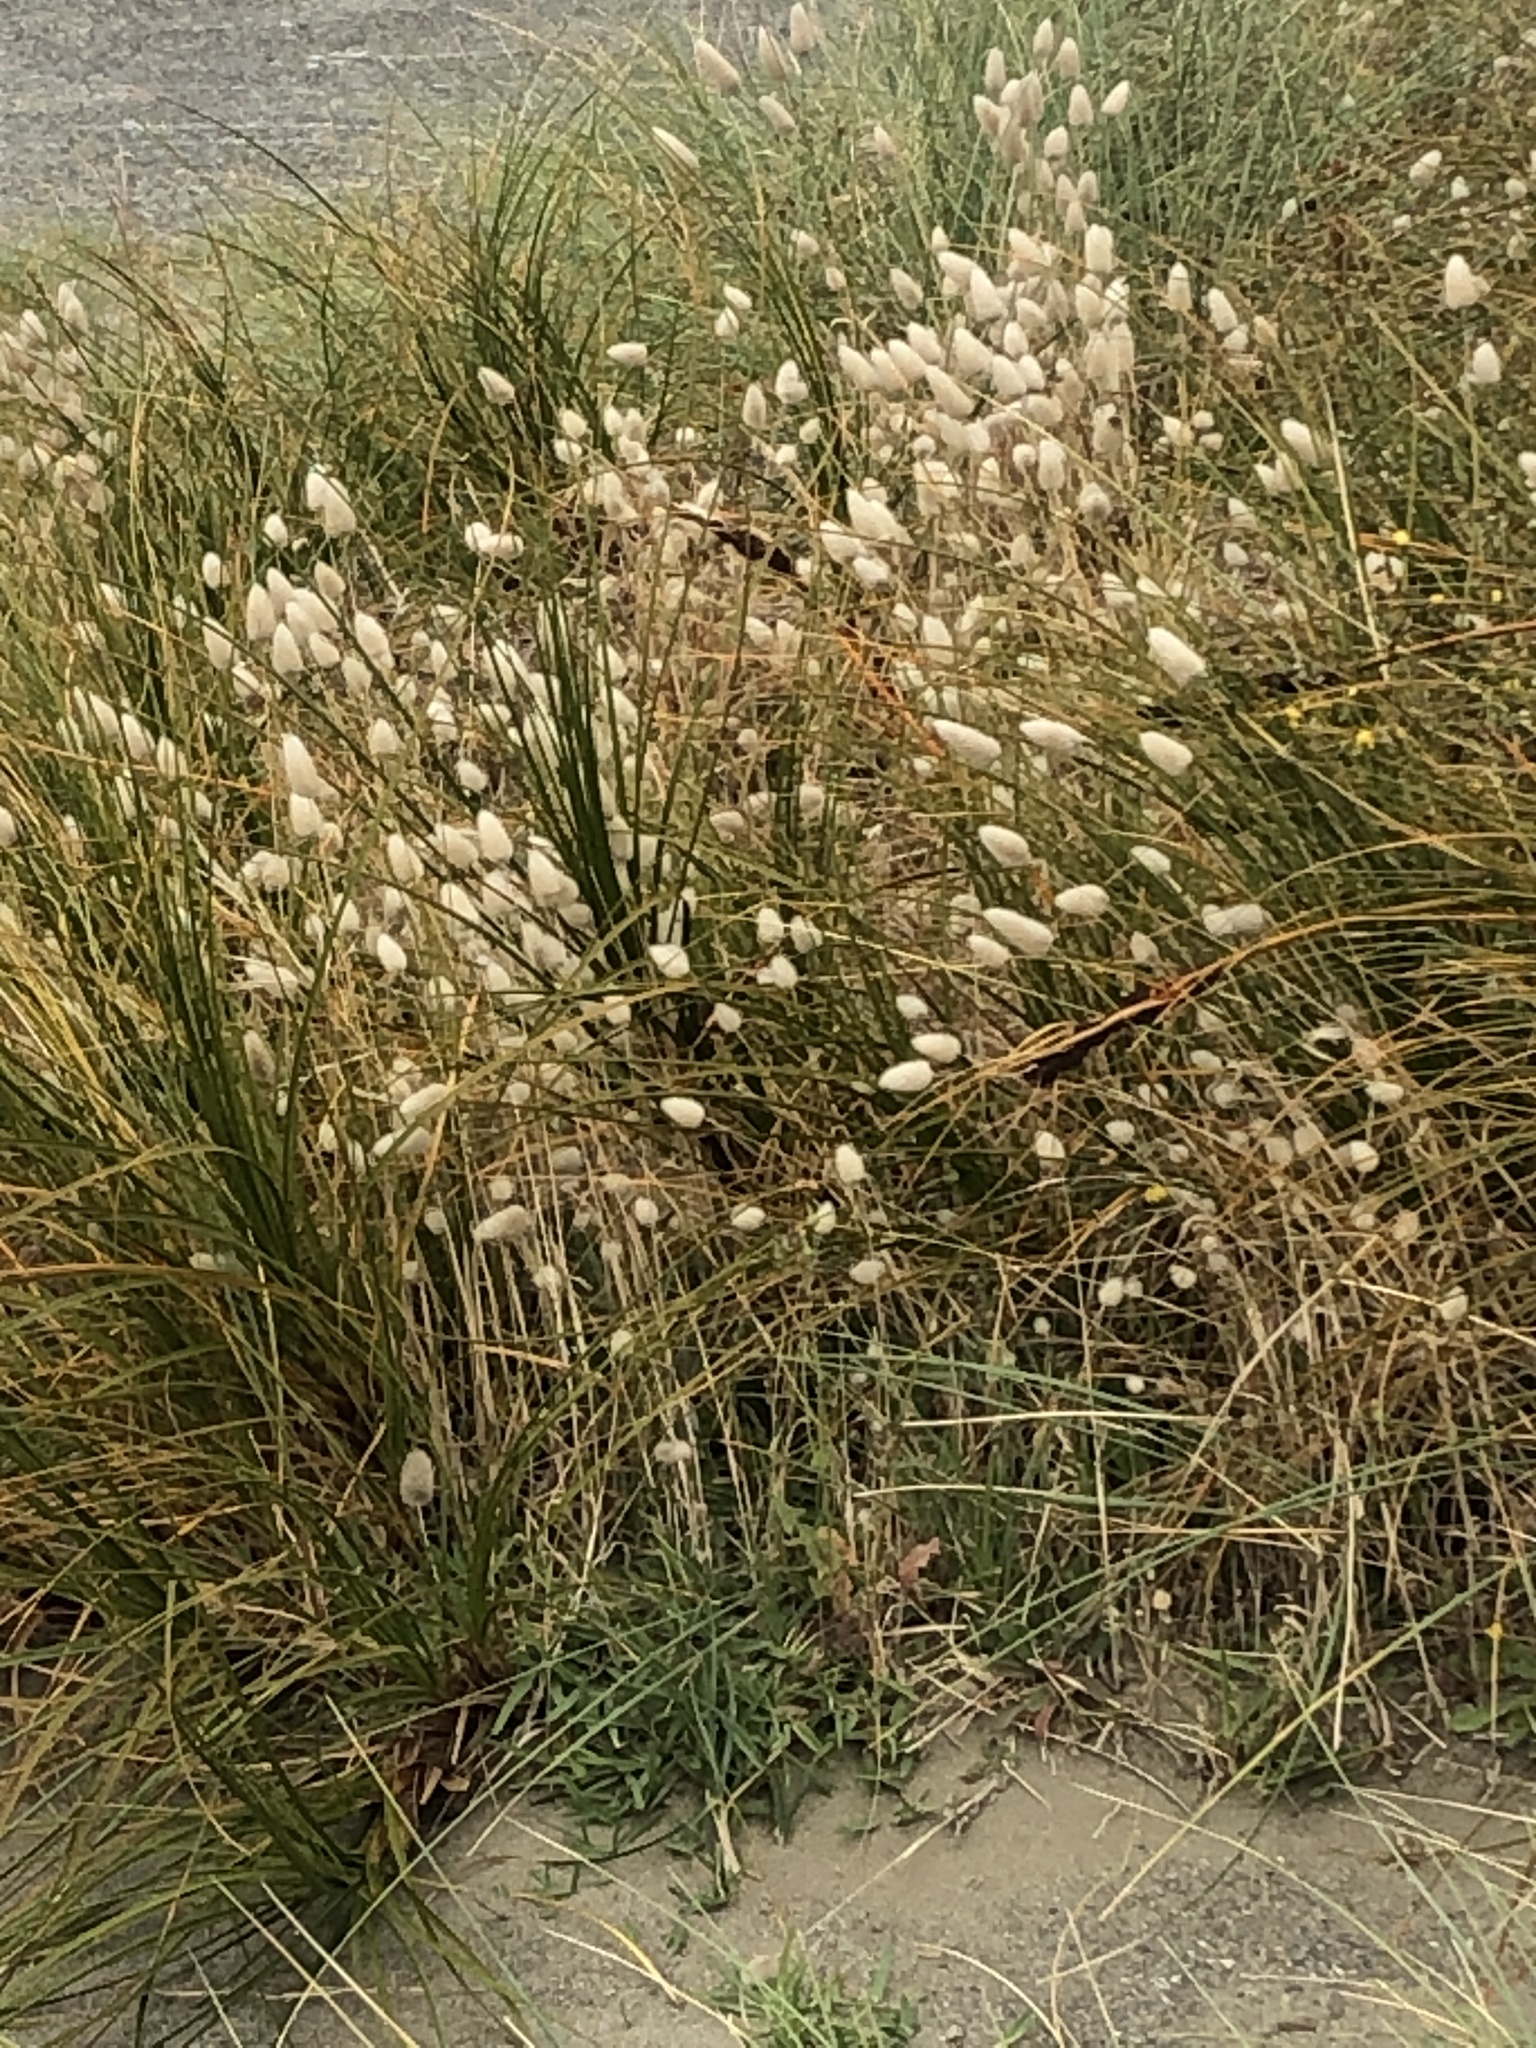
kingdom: Plantae
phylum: Tracheophyta
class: Liliopsida
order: Poales
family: Poaceae
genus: Lagurus
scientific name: Lagurus ovatus
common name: Hare's-tail
